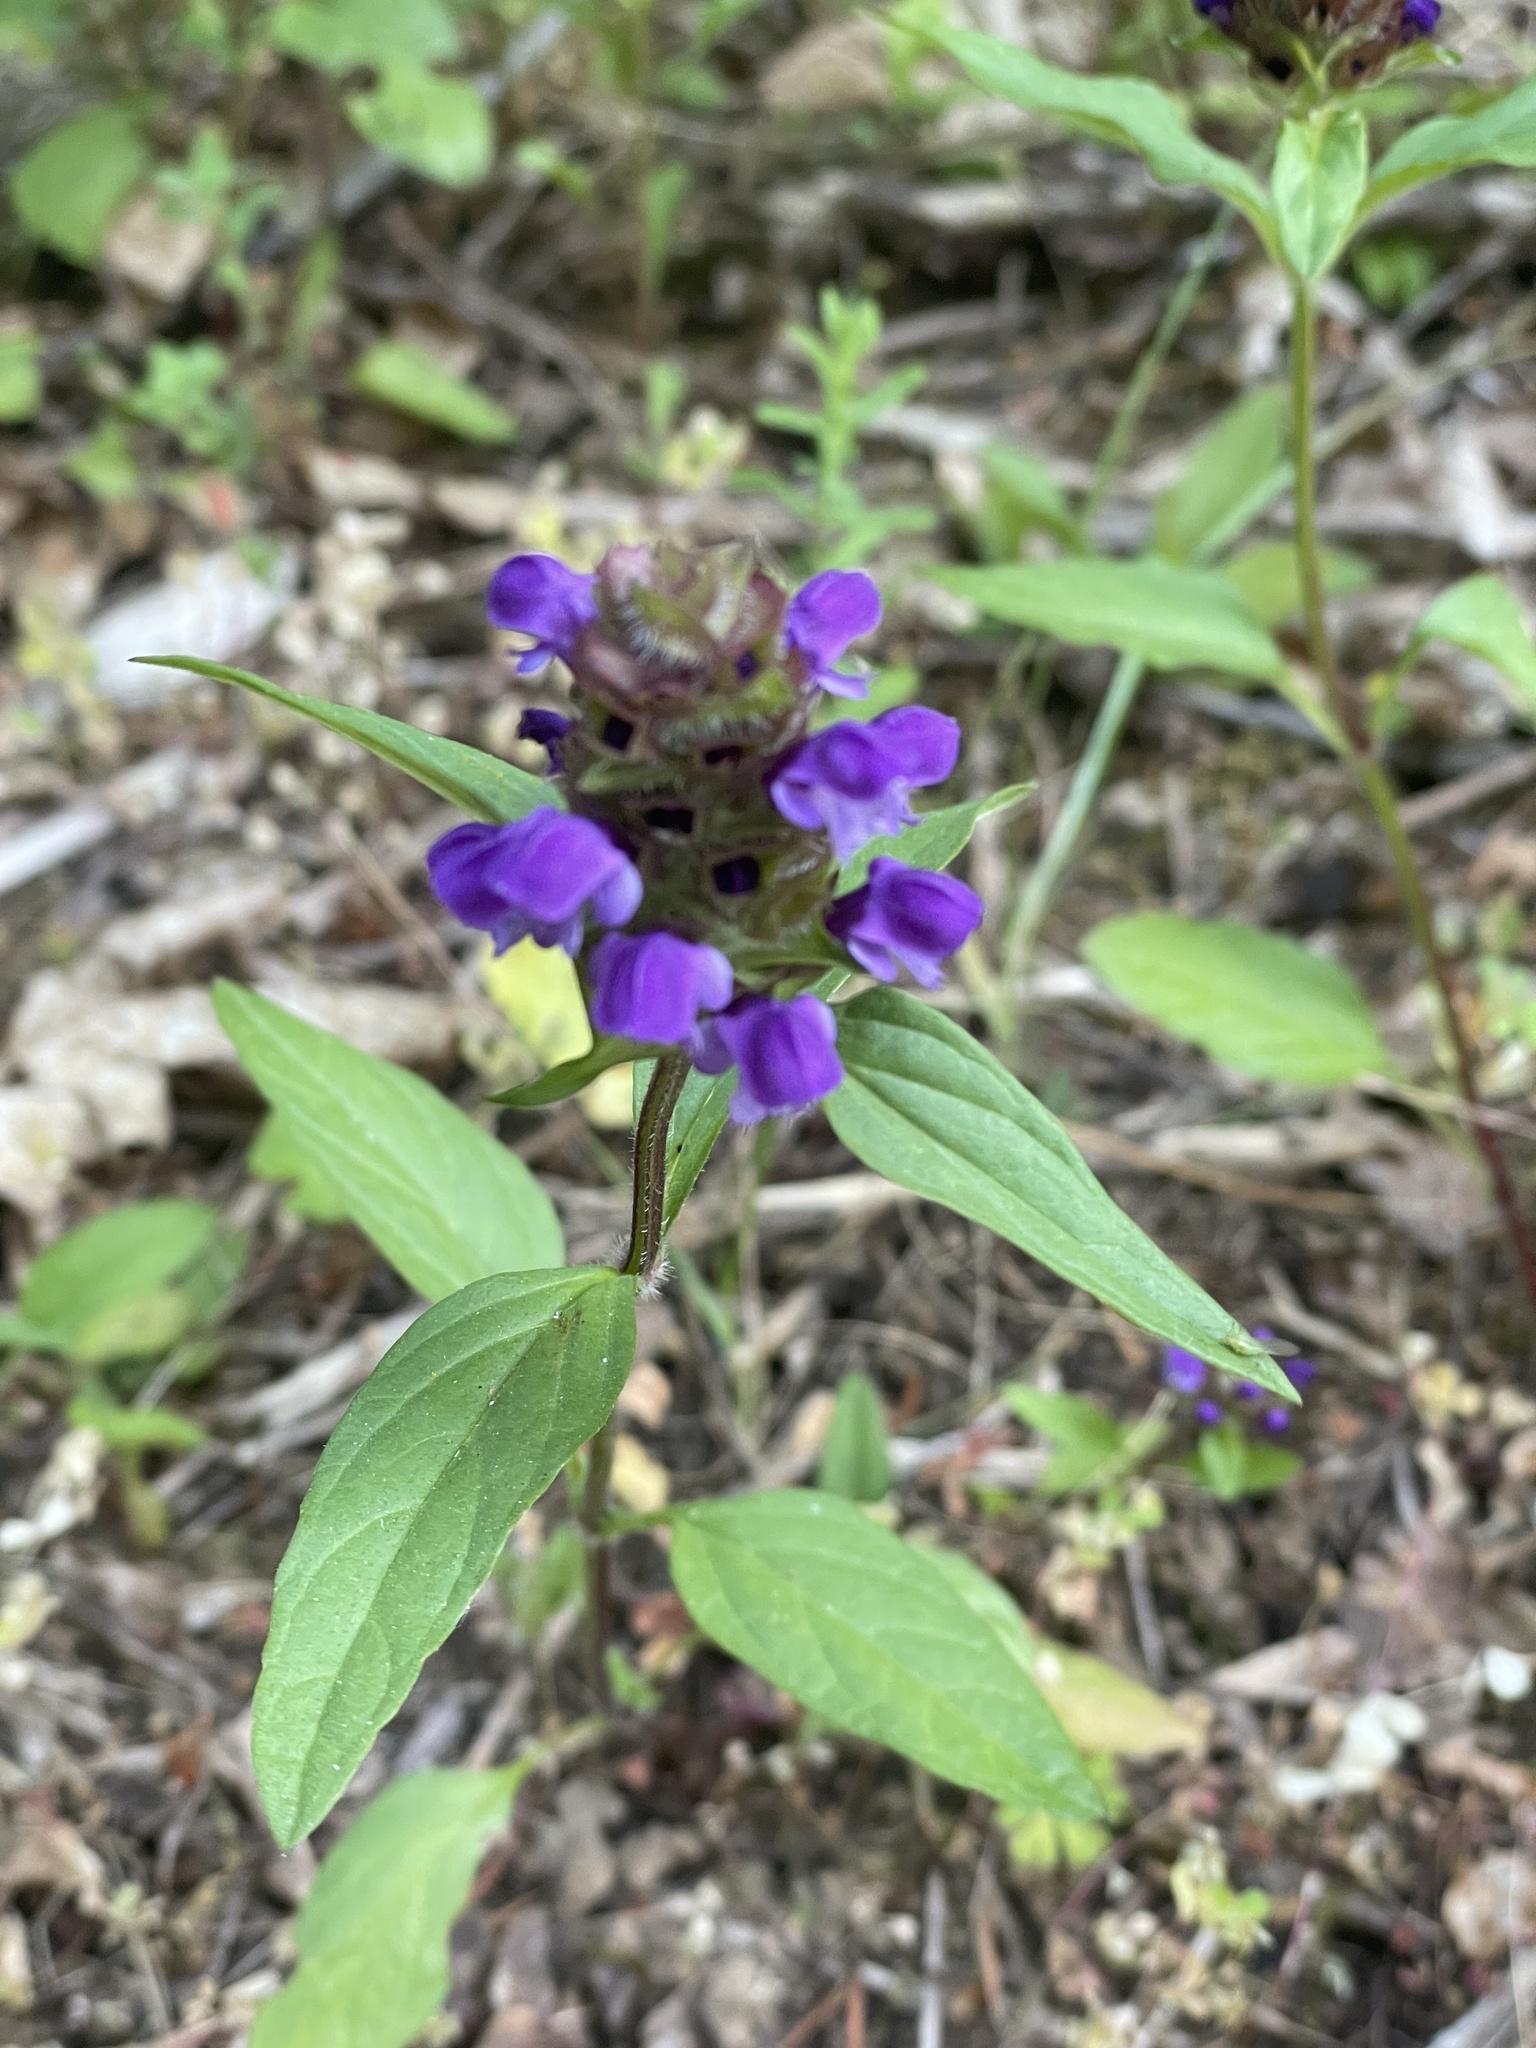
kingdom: Plantae
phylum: Tracheophyta
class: Magnoliopsida
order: Lamiales
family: Lamiaceae
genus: Prunella
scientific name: Prunella vulgaris
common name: Heal-all
